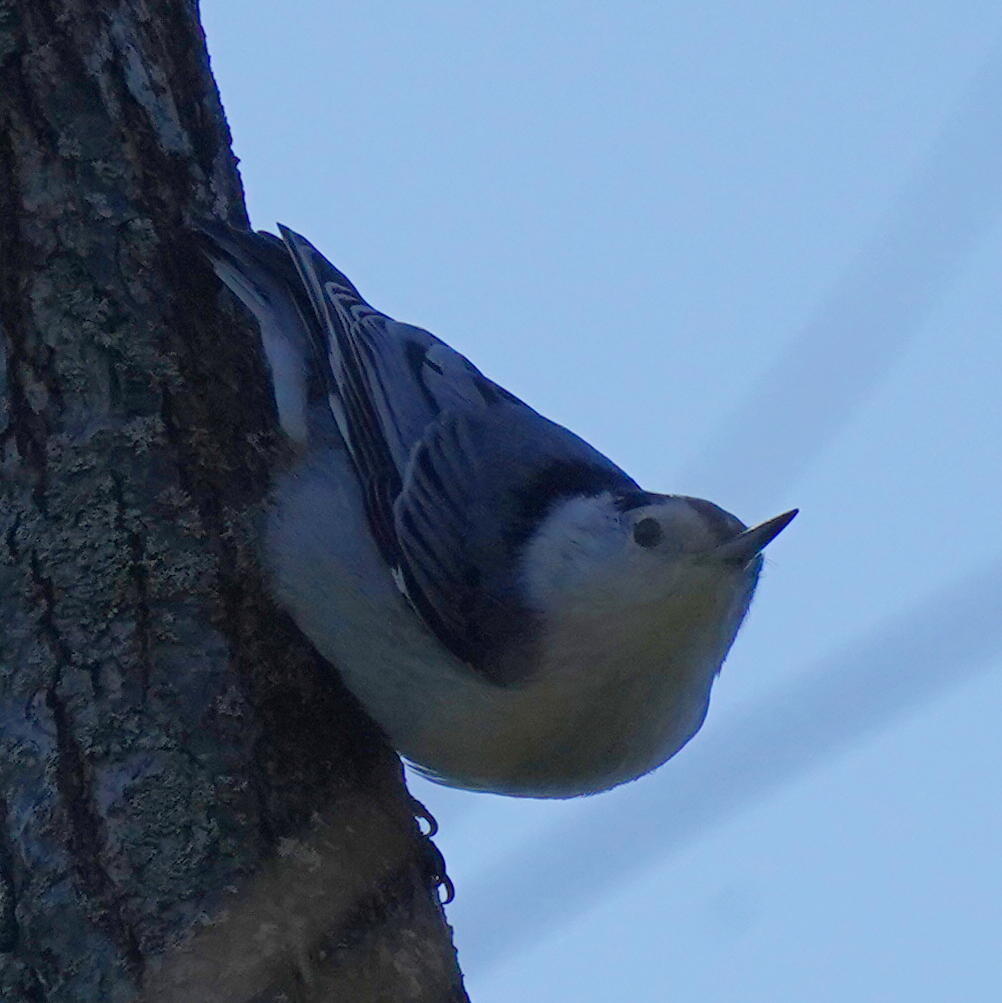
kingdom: Animalia
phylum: Chordata
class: Aves
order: Passeriformes
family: Sittidae
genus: Sitta
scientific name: Sitta carolinensis
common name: White-breasted nuthatch
